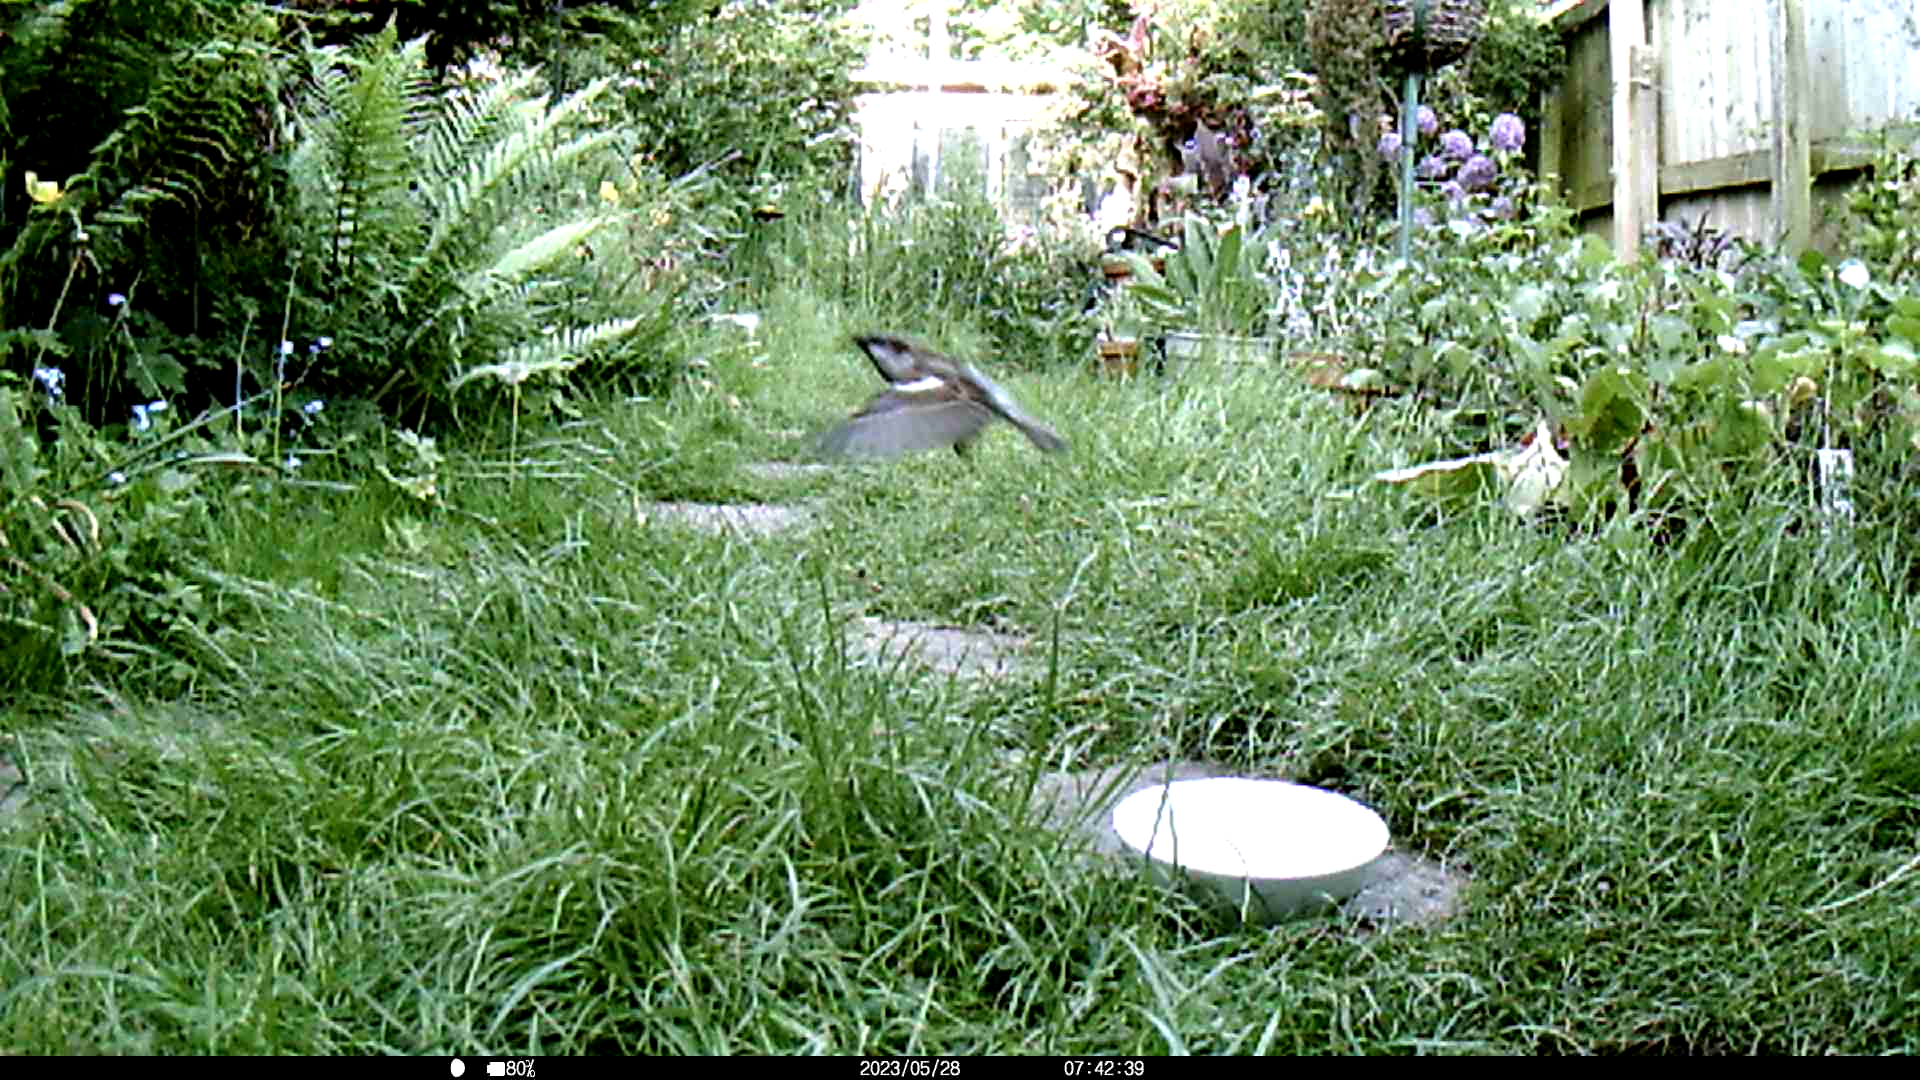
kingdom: Animalia
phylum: Chordata
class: Aves
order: Passeriformes
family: Passeridae
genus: Passer
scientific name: Passer domesticus
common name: House sparrow
